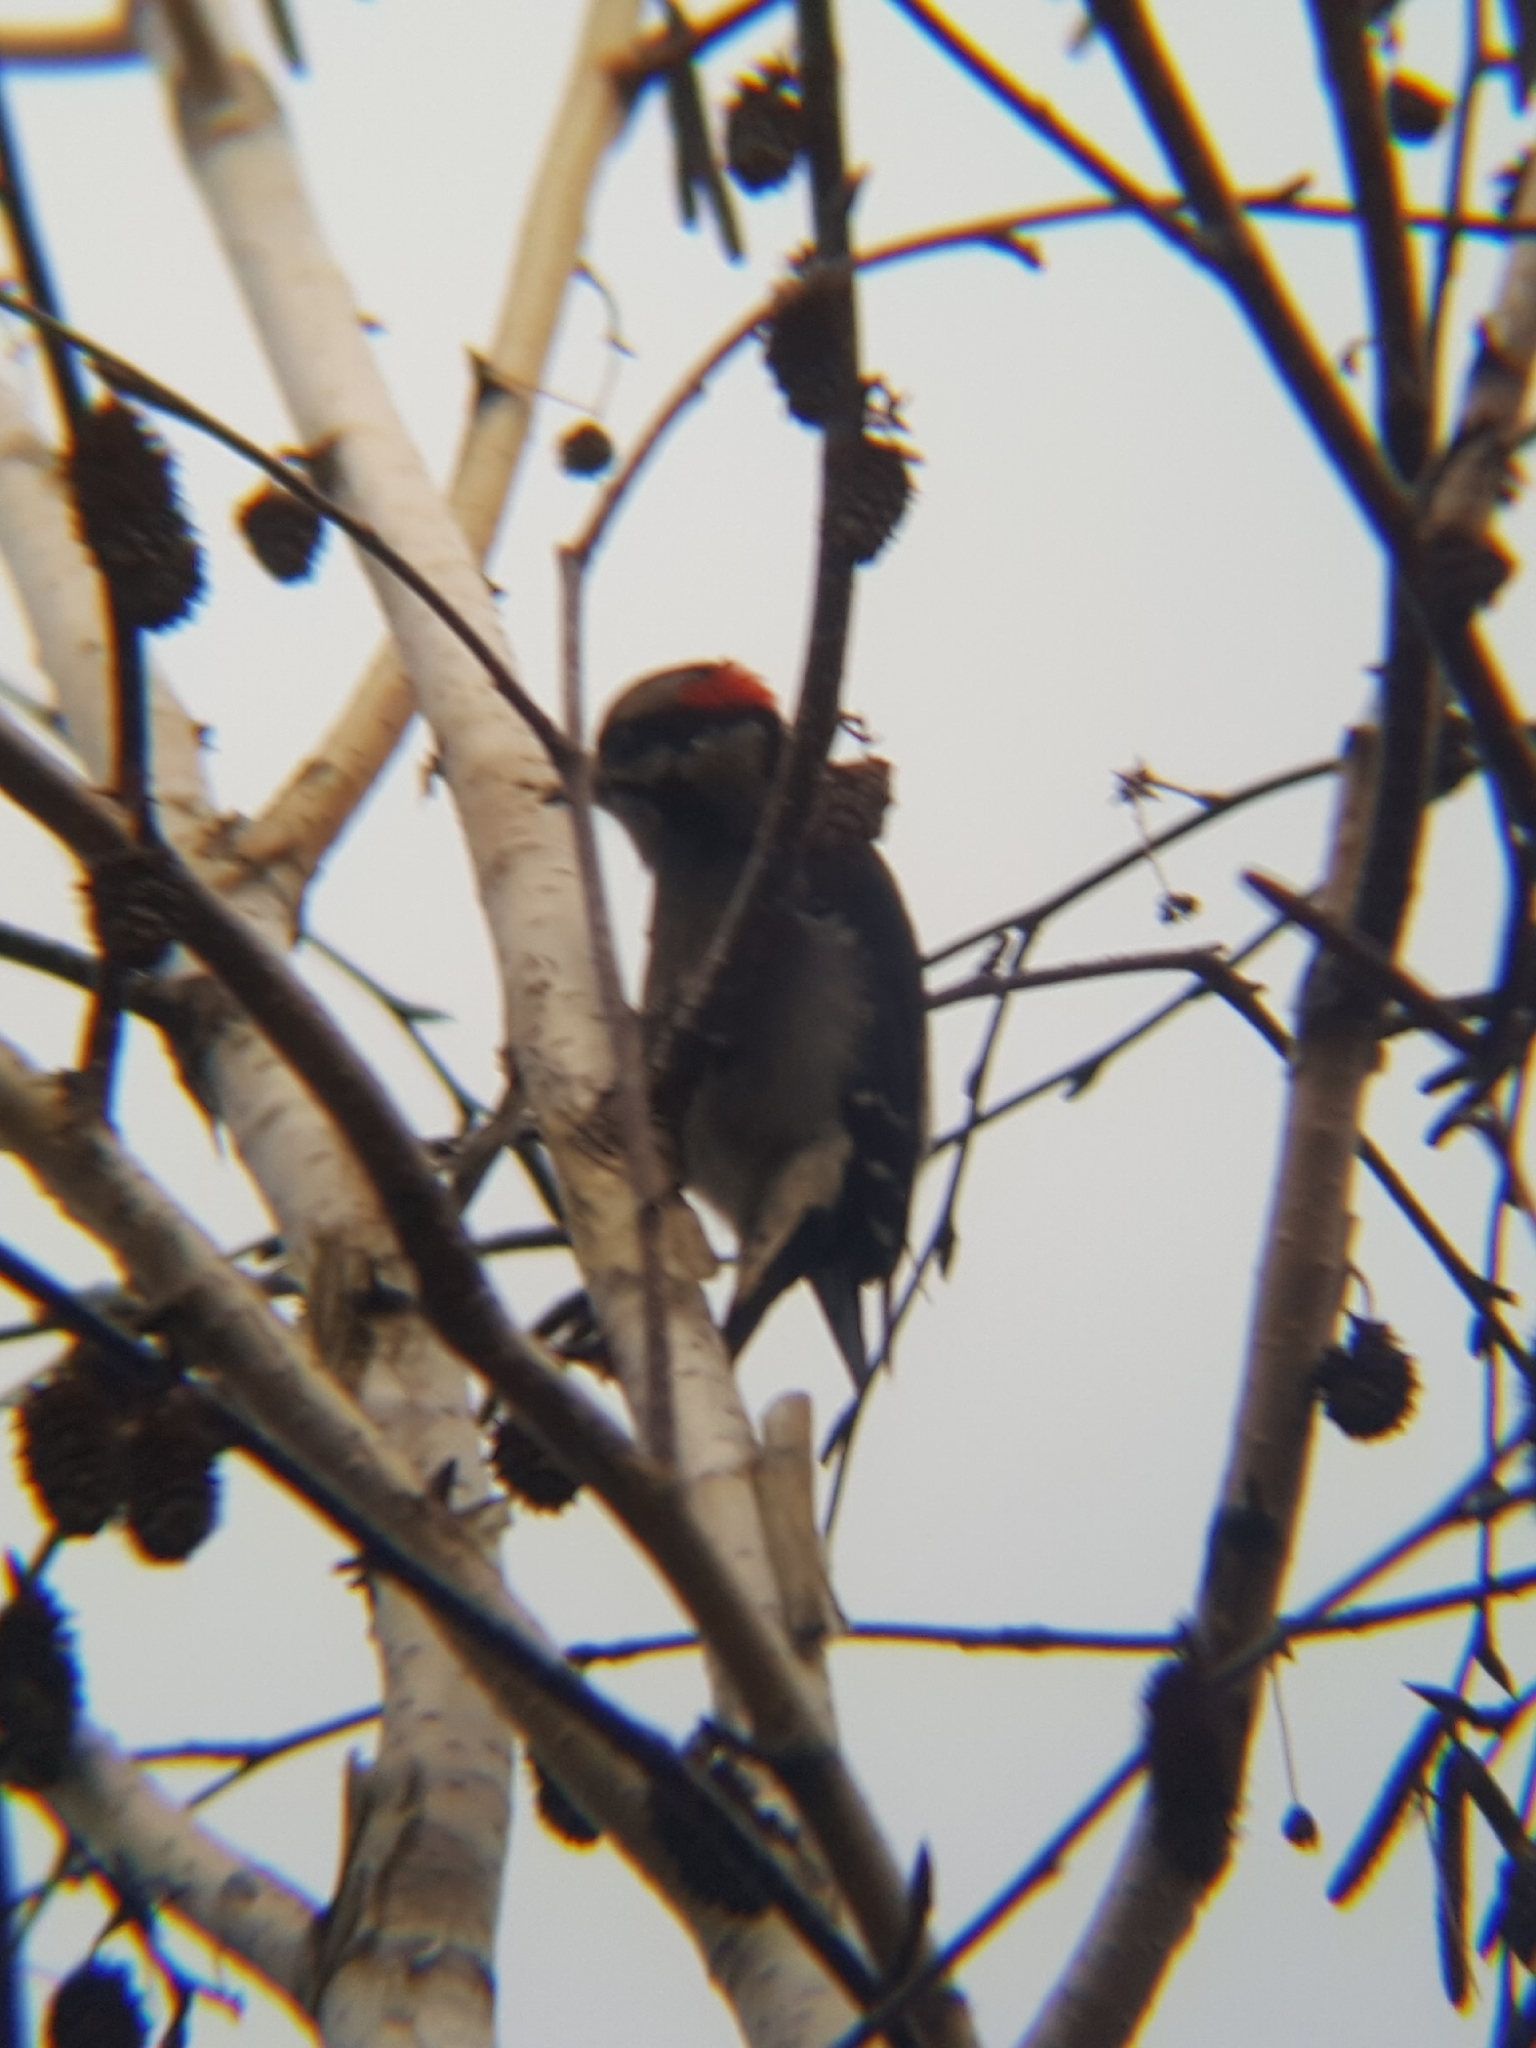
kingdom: Animalia
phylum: Chordata
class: Aves
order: Piciformes
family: Picidae
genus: Dryobates
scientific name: Dryobates pubescens
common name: Downy woodpecker
